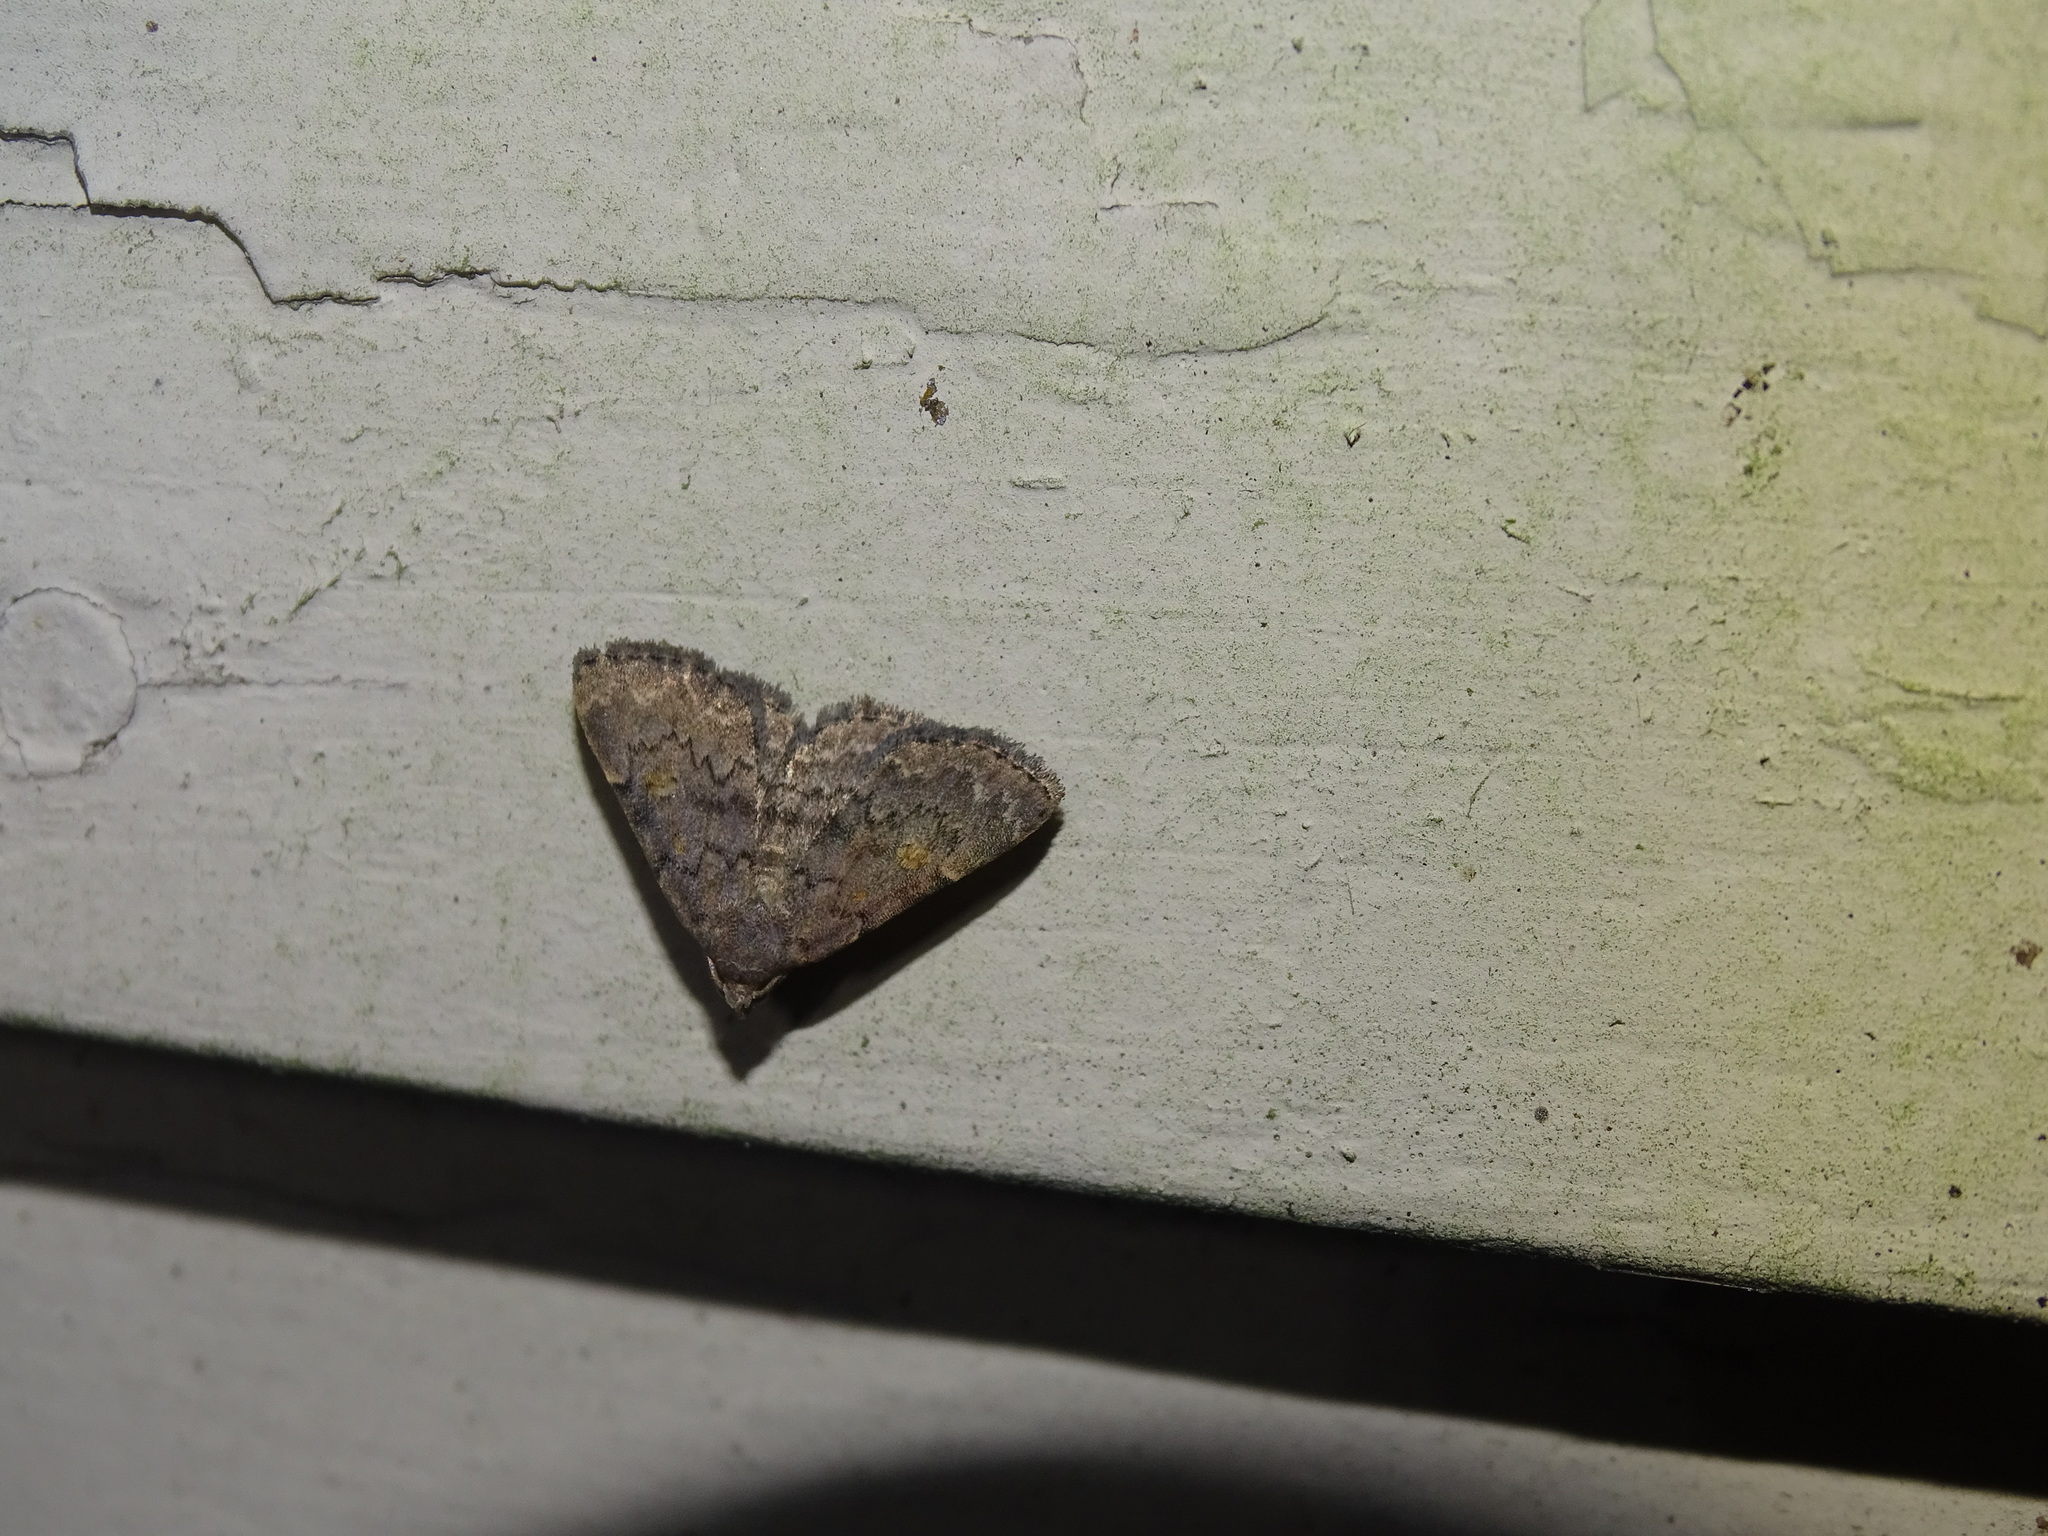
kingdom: Animalia
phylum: Arthropoda
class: Insecta
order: Lepidoptera
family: Erebidae
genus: Idia
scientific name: Idia aemula
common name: Common idia moth
